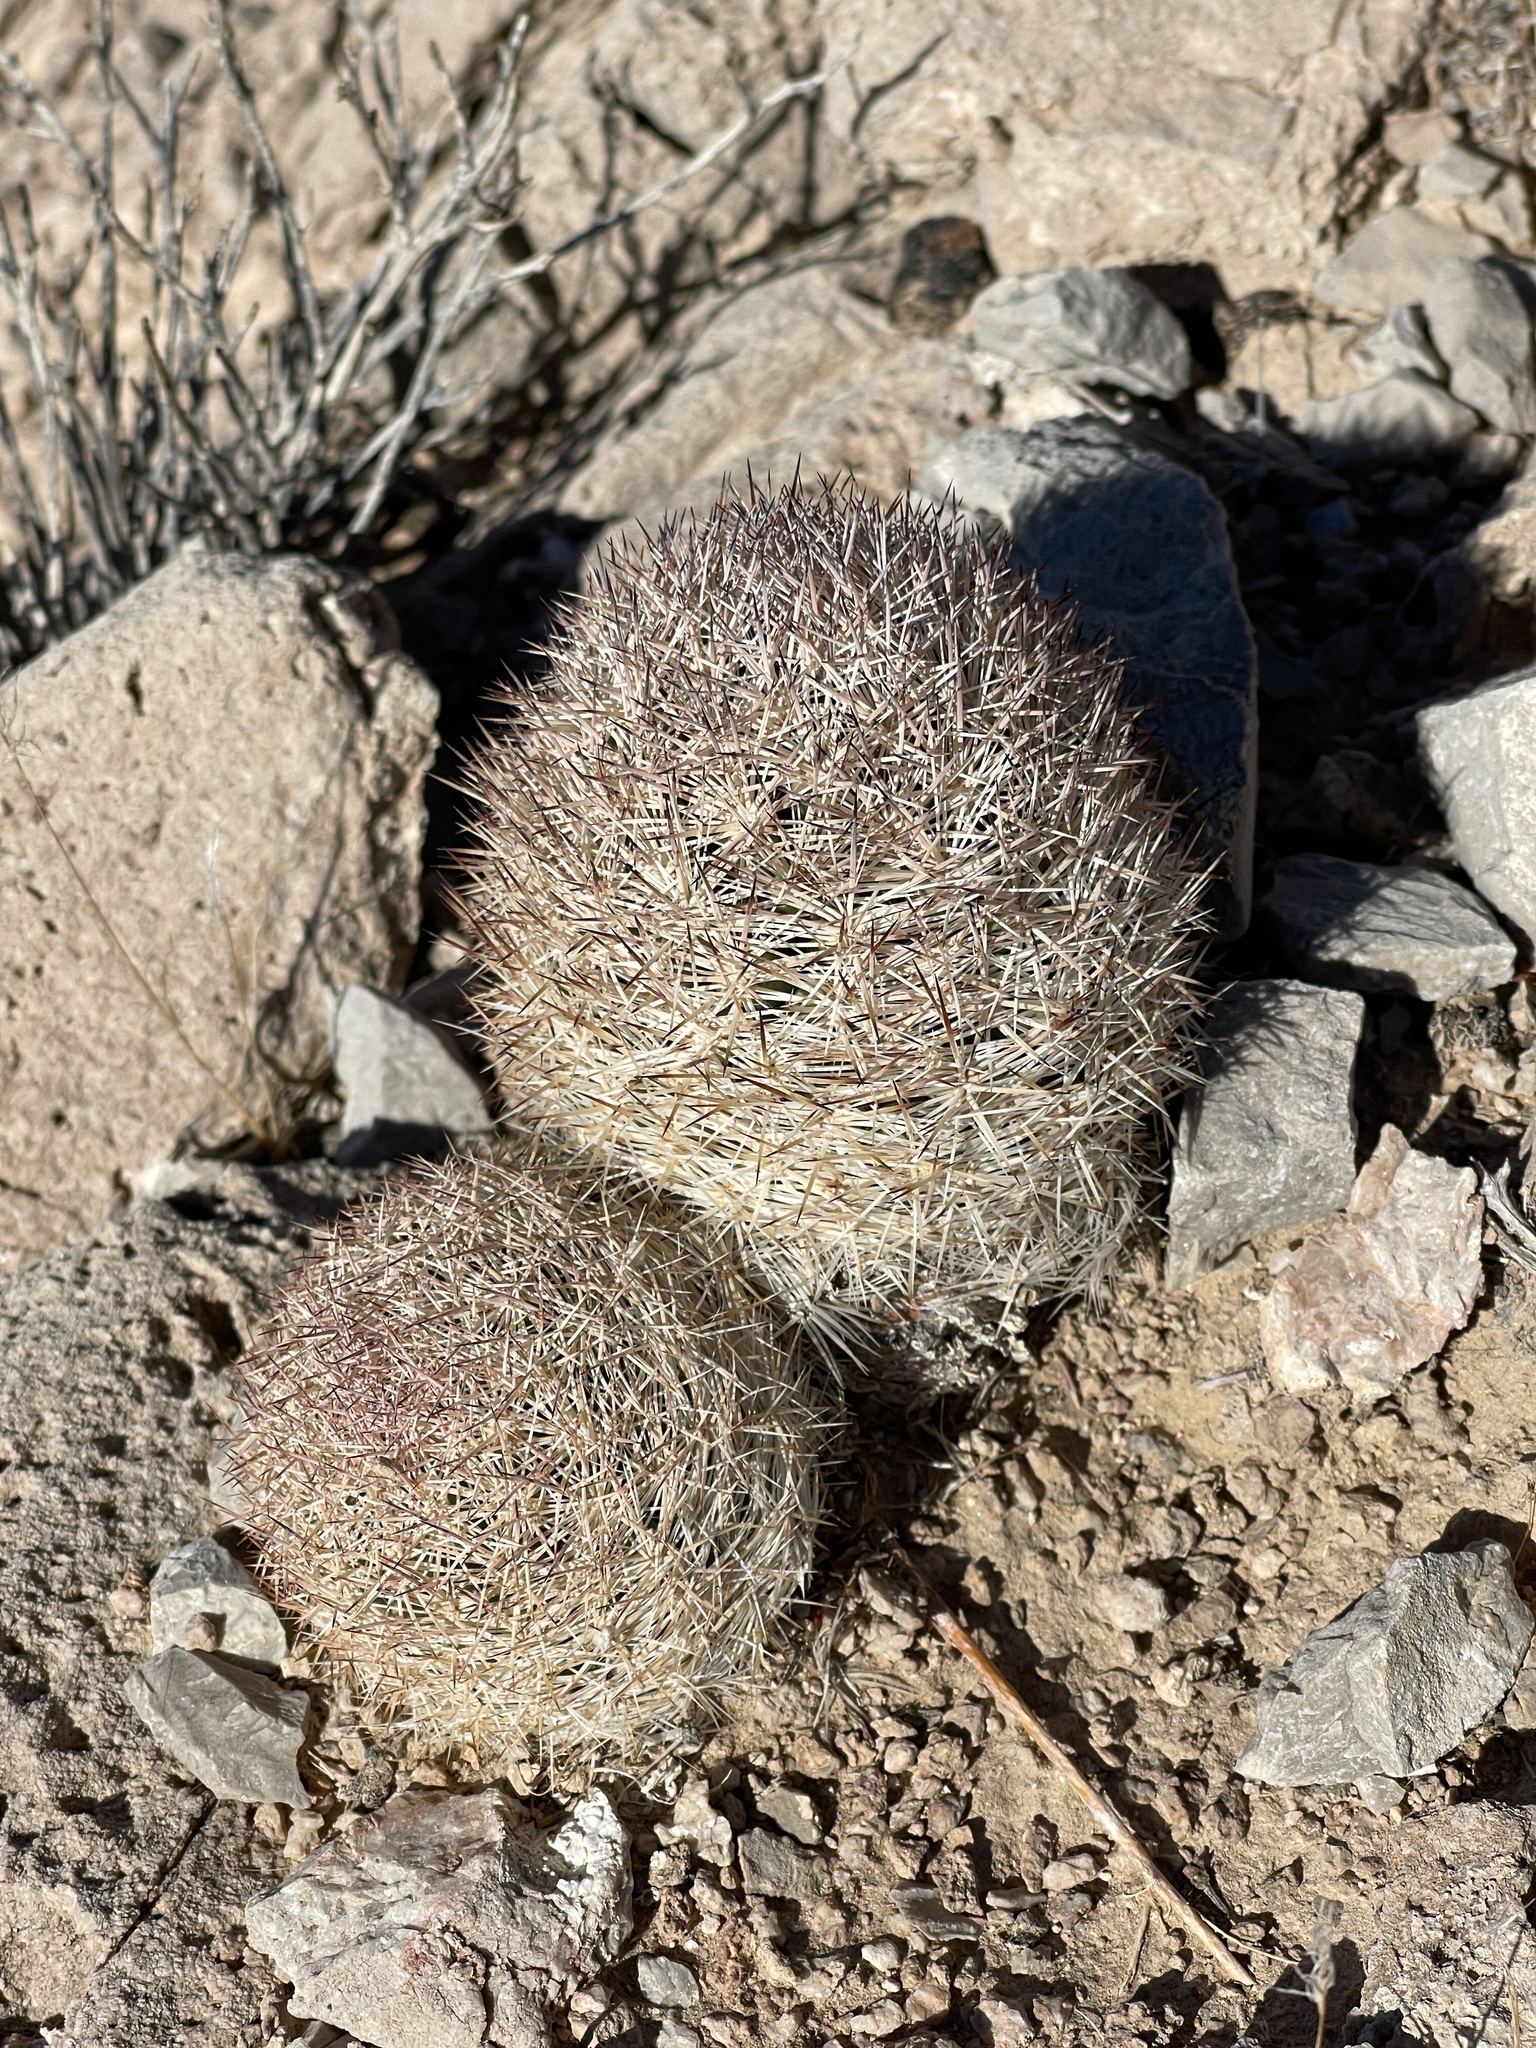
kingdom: Plantae
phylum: Tracheophyta
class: Magnoliopsida
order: Caryophyllales
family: Cactaceae
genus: Pelecyphora
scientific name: Pelecyphora dasyacantha
